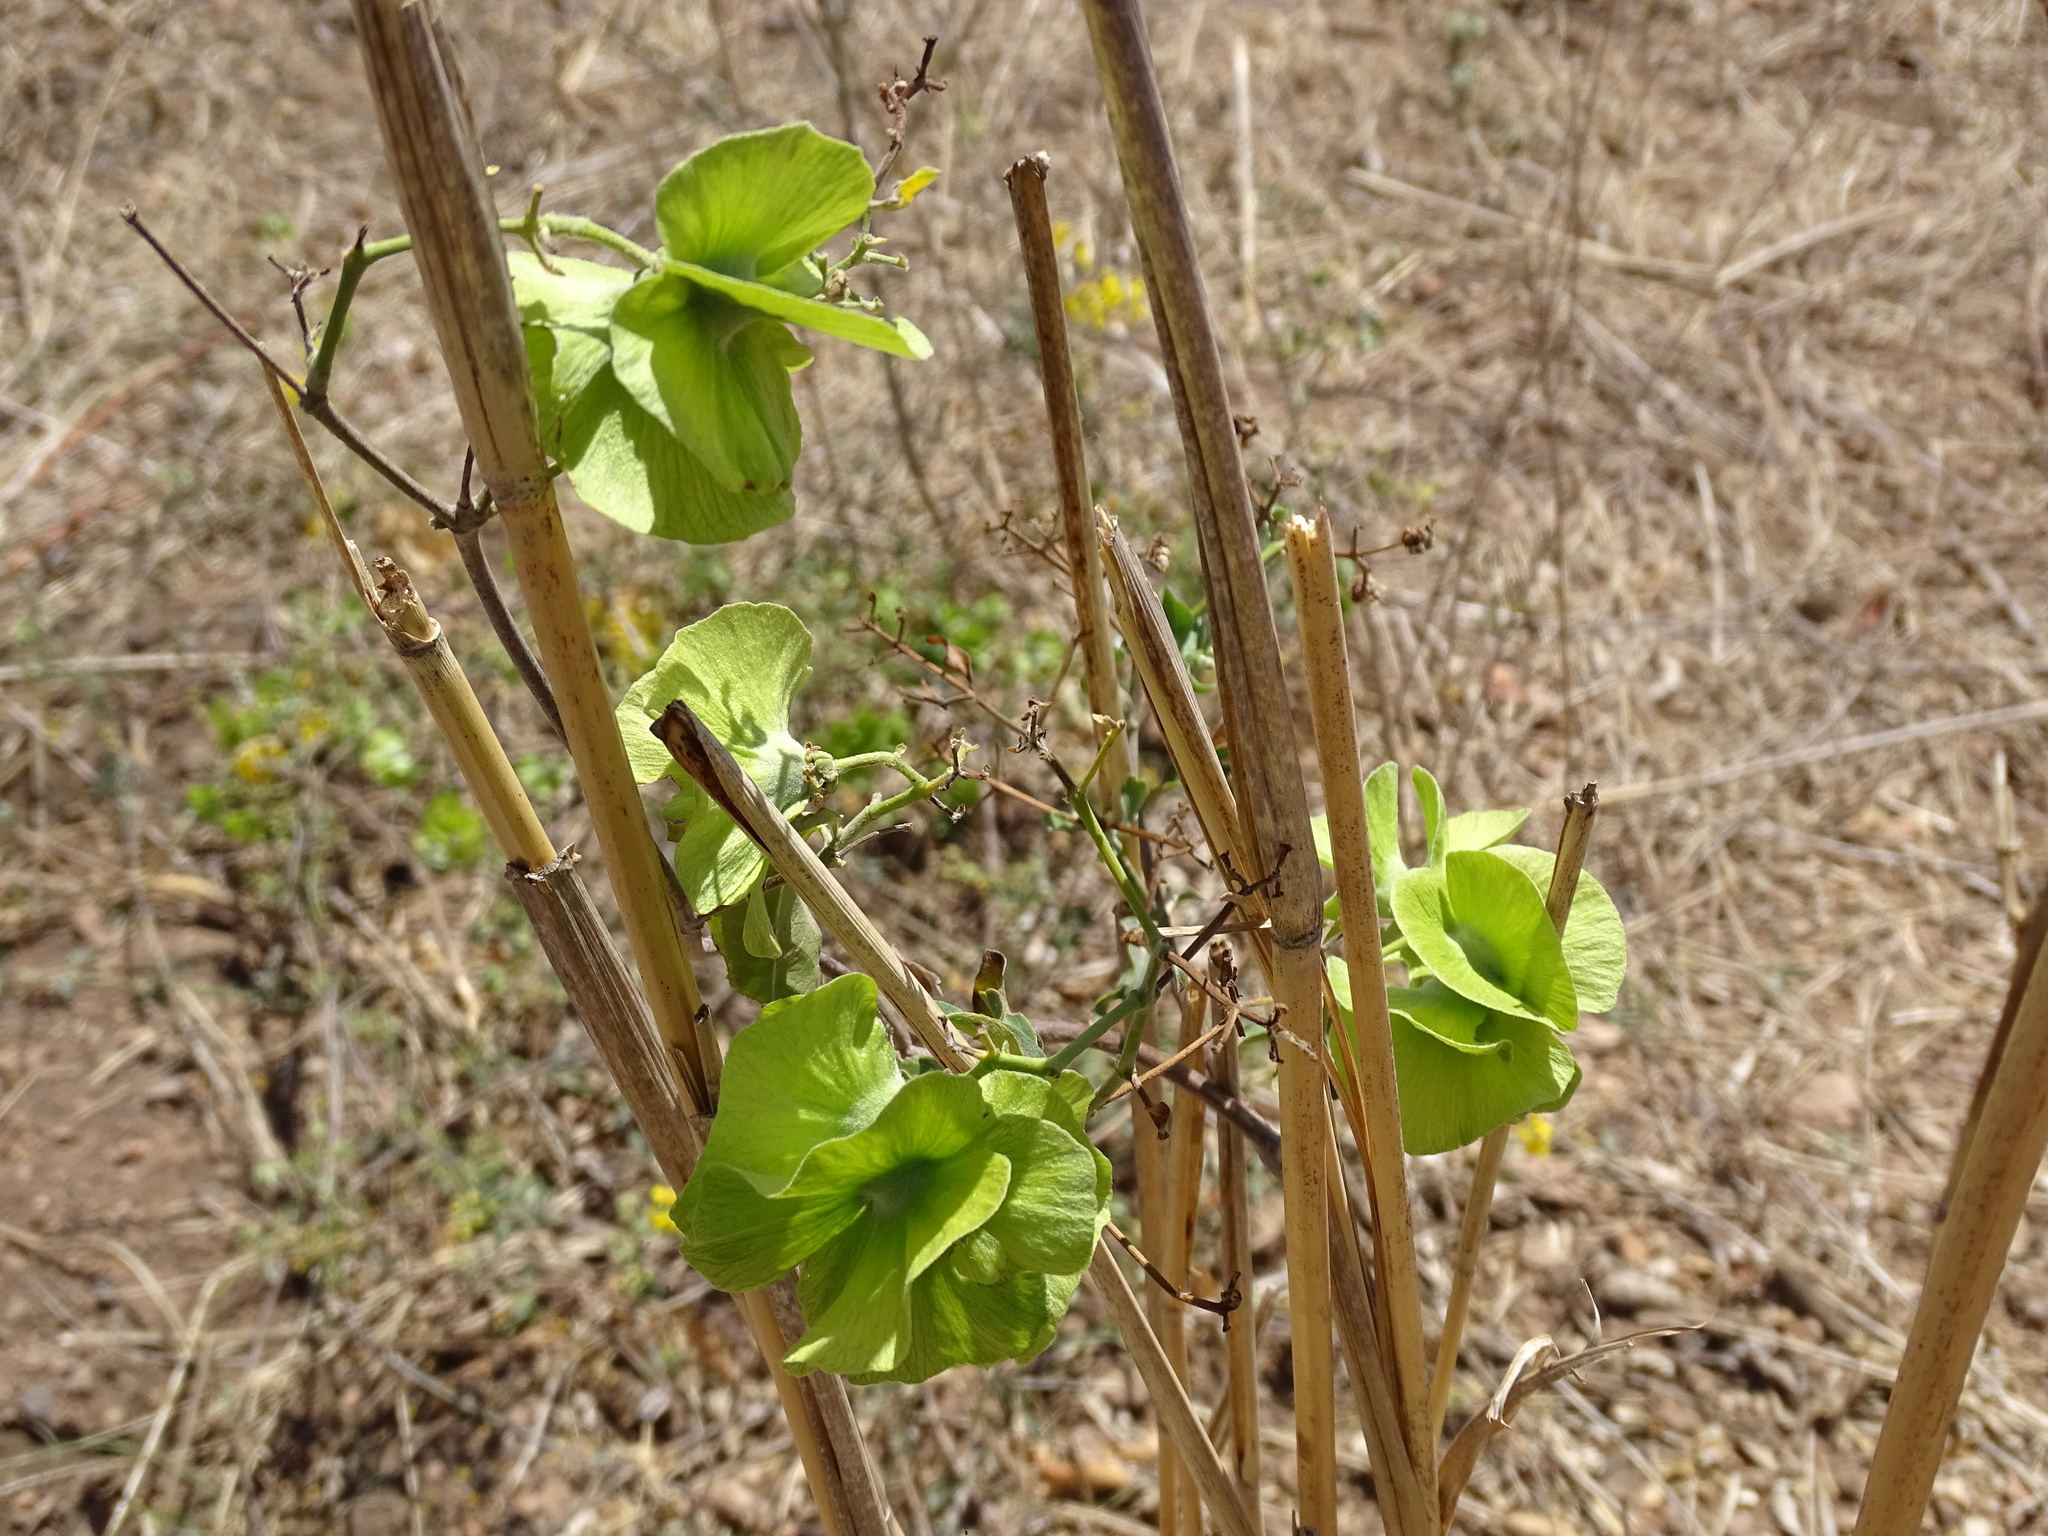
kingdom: Plantae
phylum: Tracheophyta
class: Magnoliopsida
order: Malpighiales
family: Malpighiaceae
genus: Callaeum
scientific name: Callaeum macropterum
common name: Mexican butterfly-vine
